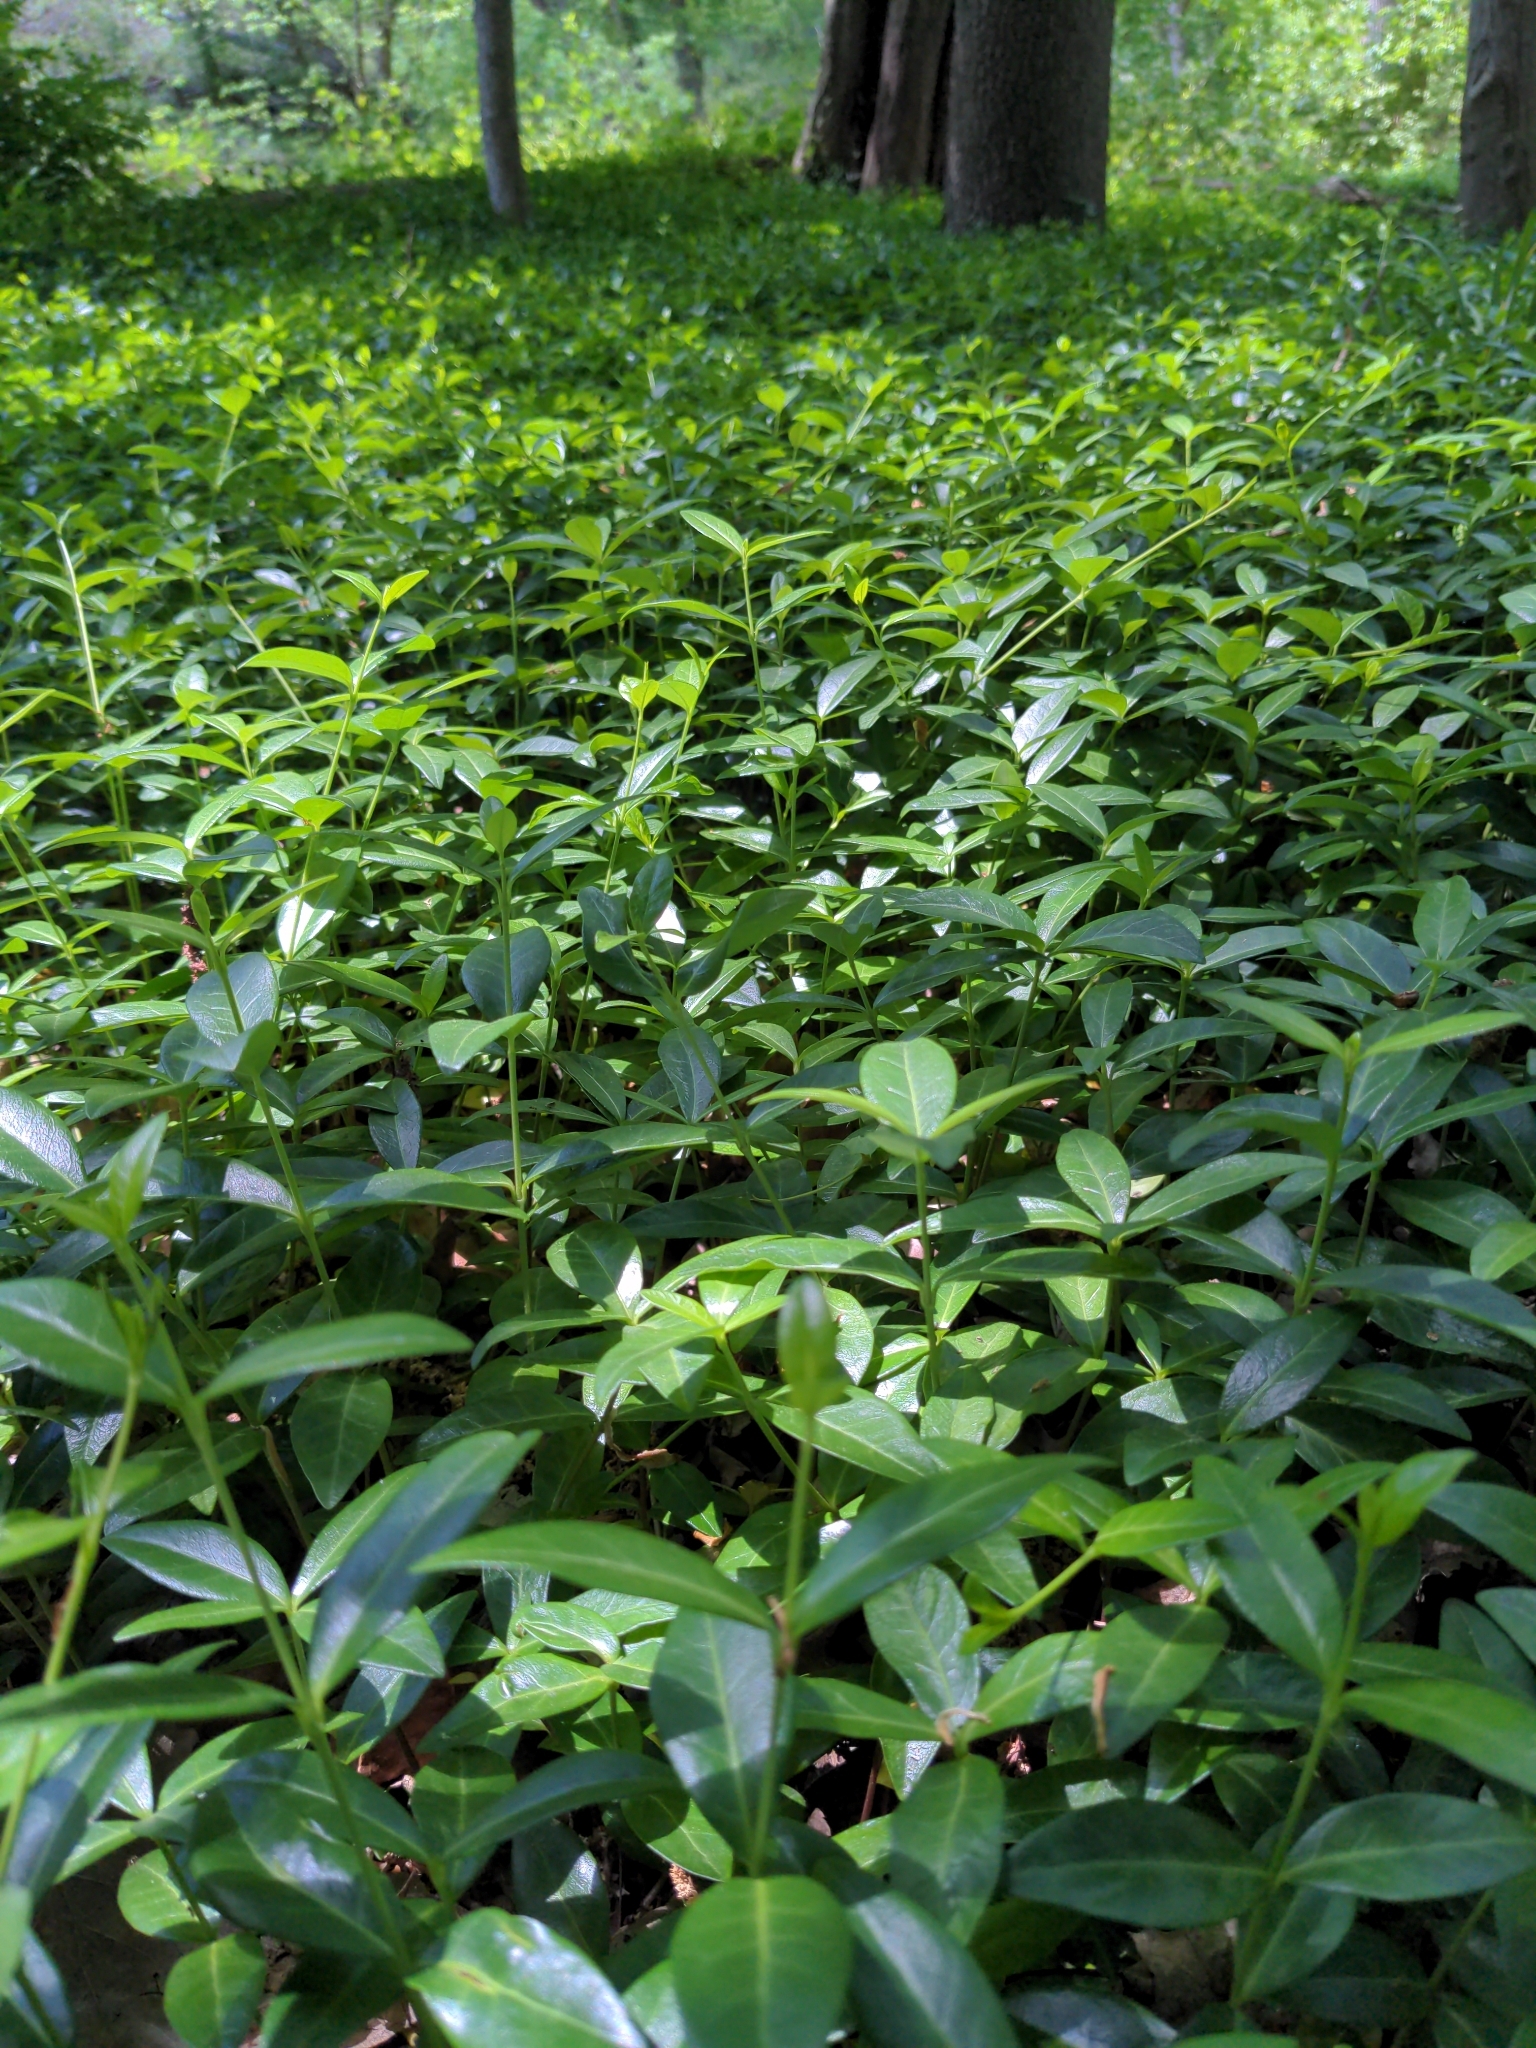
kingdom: Plantae
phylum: Tracheophyta
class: Magnoliopsida
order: Gentianales
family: Apocynaceae
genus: Vinca
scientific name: Vinca minor
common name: Lesser periwinkle
